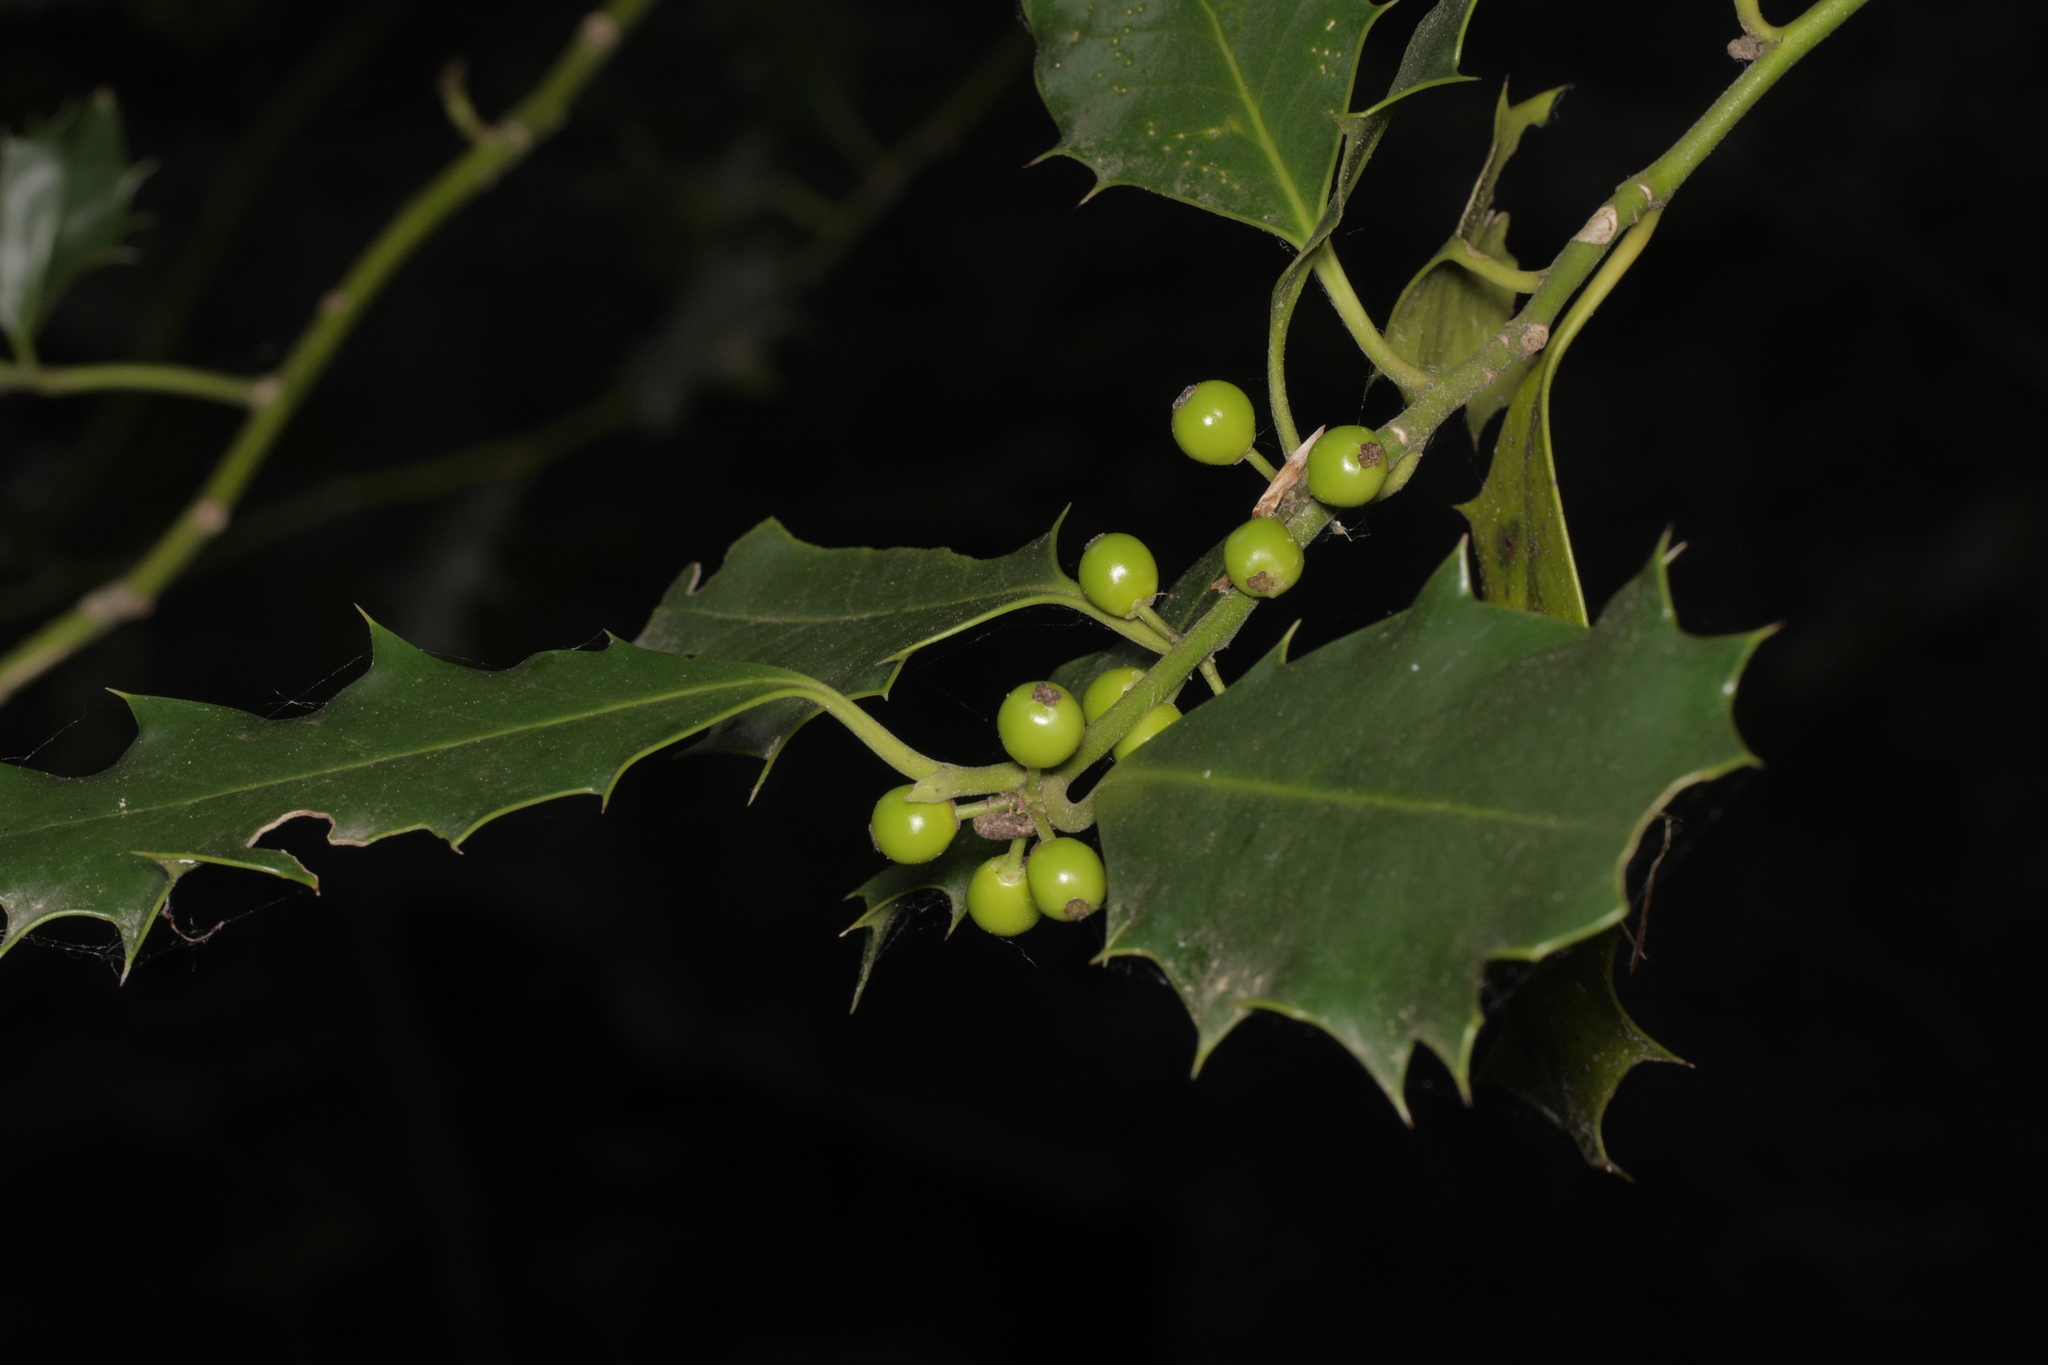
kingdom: Plantae
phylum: Tracheophyta
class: Magnoliopsida
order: Aquifoliales
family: Aquifoliaceae
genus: Ilex
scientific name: Ilex aquifolium
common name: English holly
